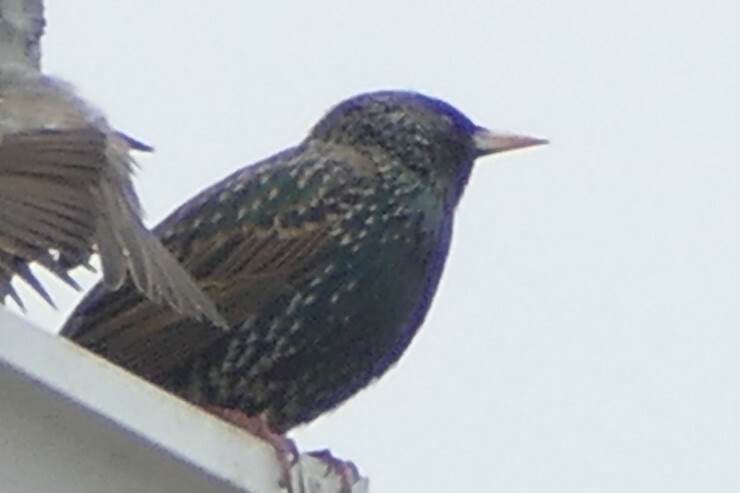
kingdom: Animalia
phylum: Chordata
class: Aves
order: Passeriformes
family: Sturnidae
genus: Sturnus
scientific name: Sturnus vulgaris
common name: Common starling
